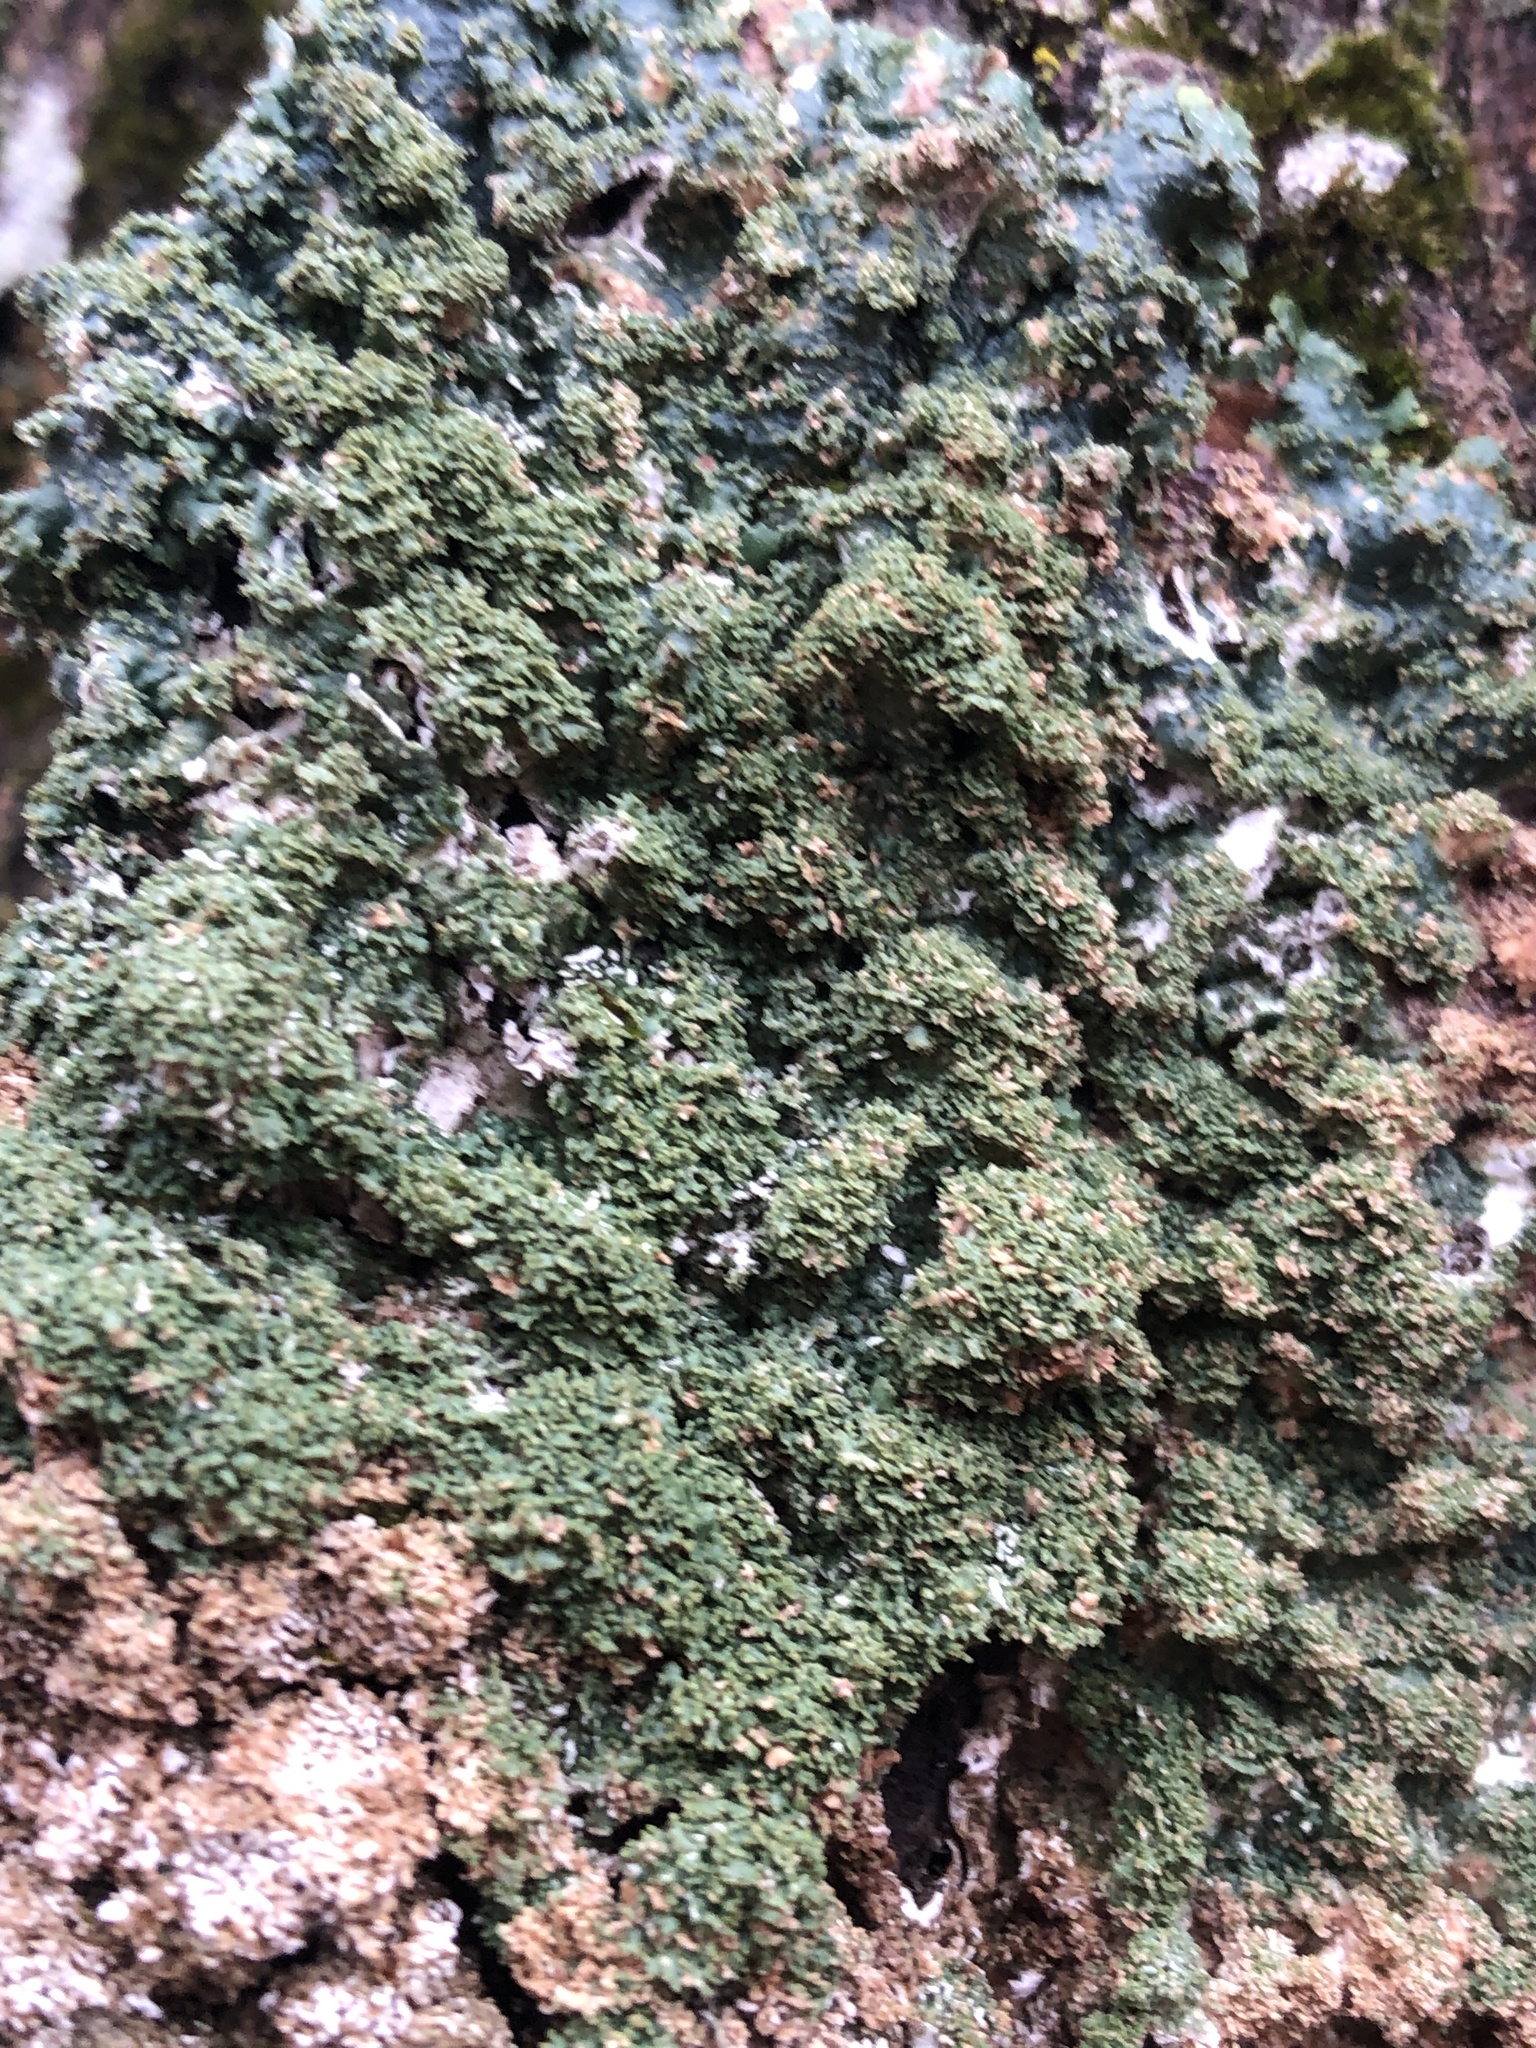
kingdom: Fungi
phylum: Ascomycota
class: Lecanoromycetes
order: Lecanorales
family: Parmeliaceae
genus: Punctelia
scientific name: Punctelia rudecta
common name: Rough speckled shield lichen
